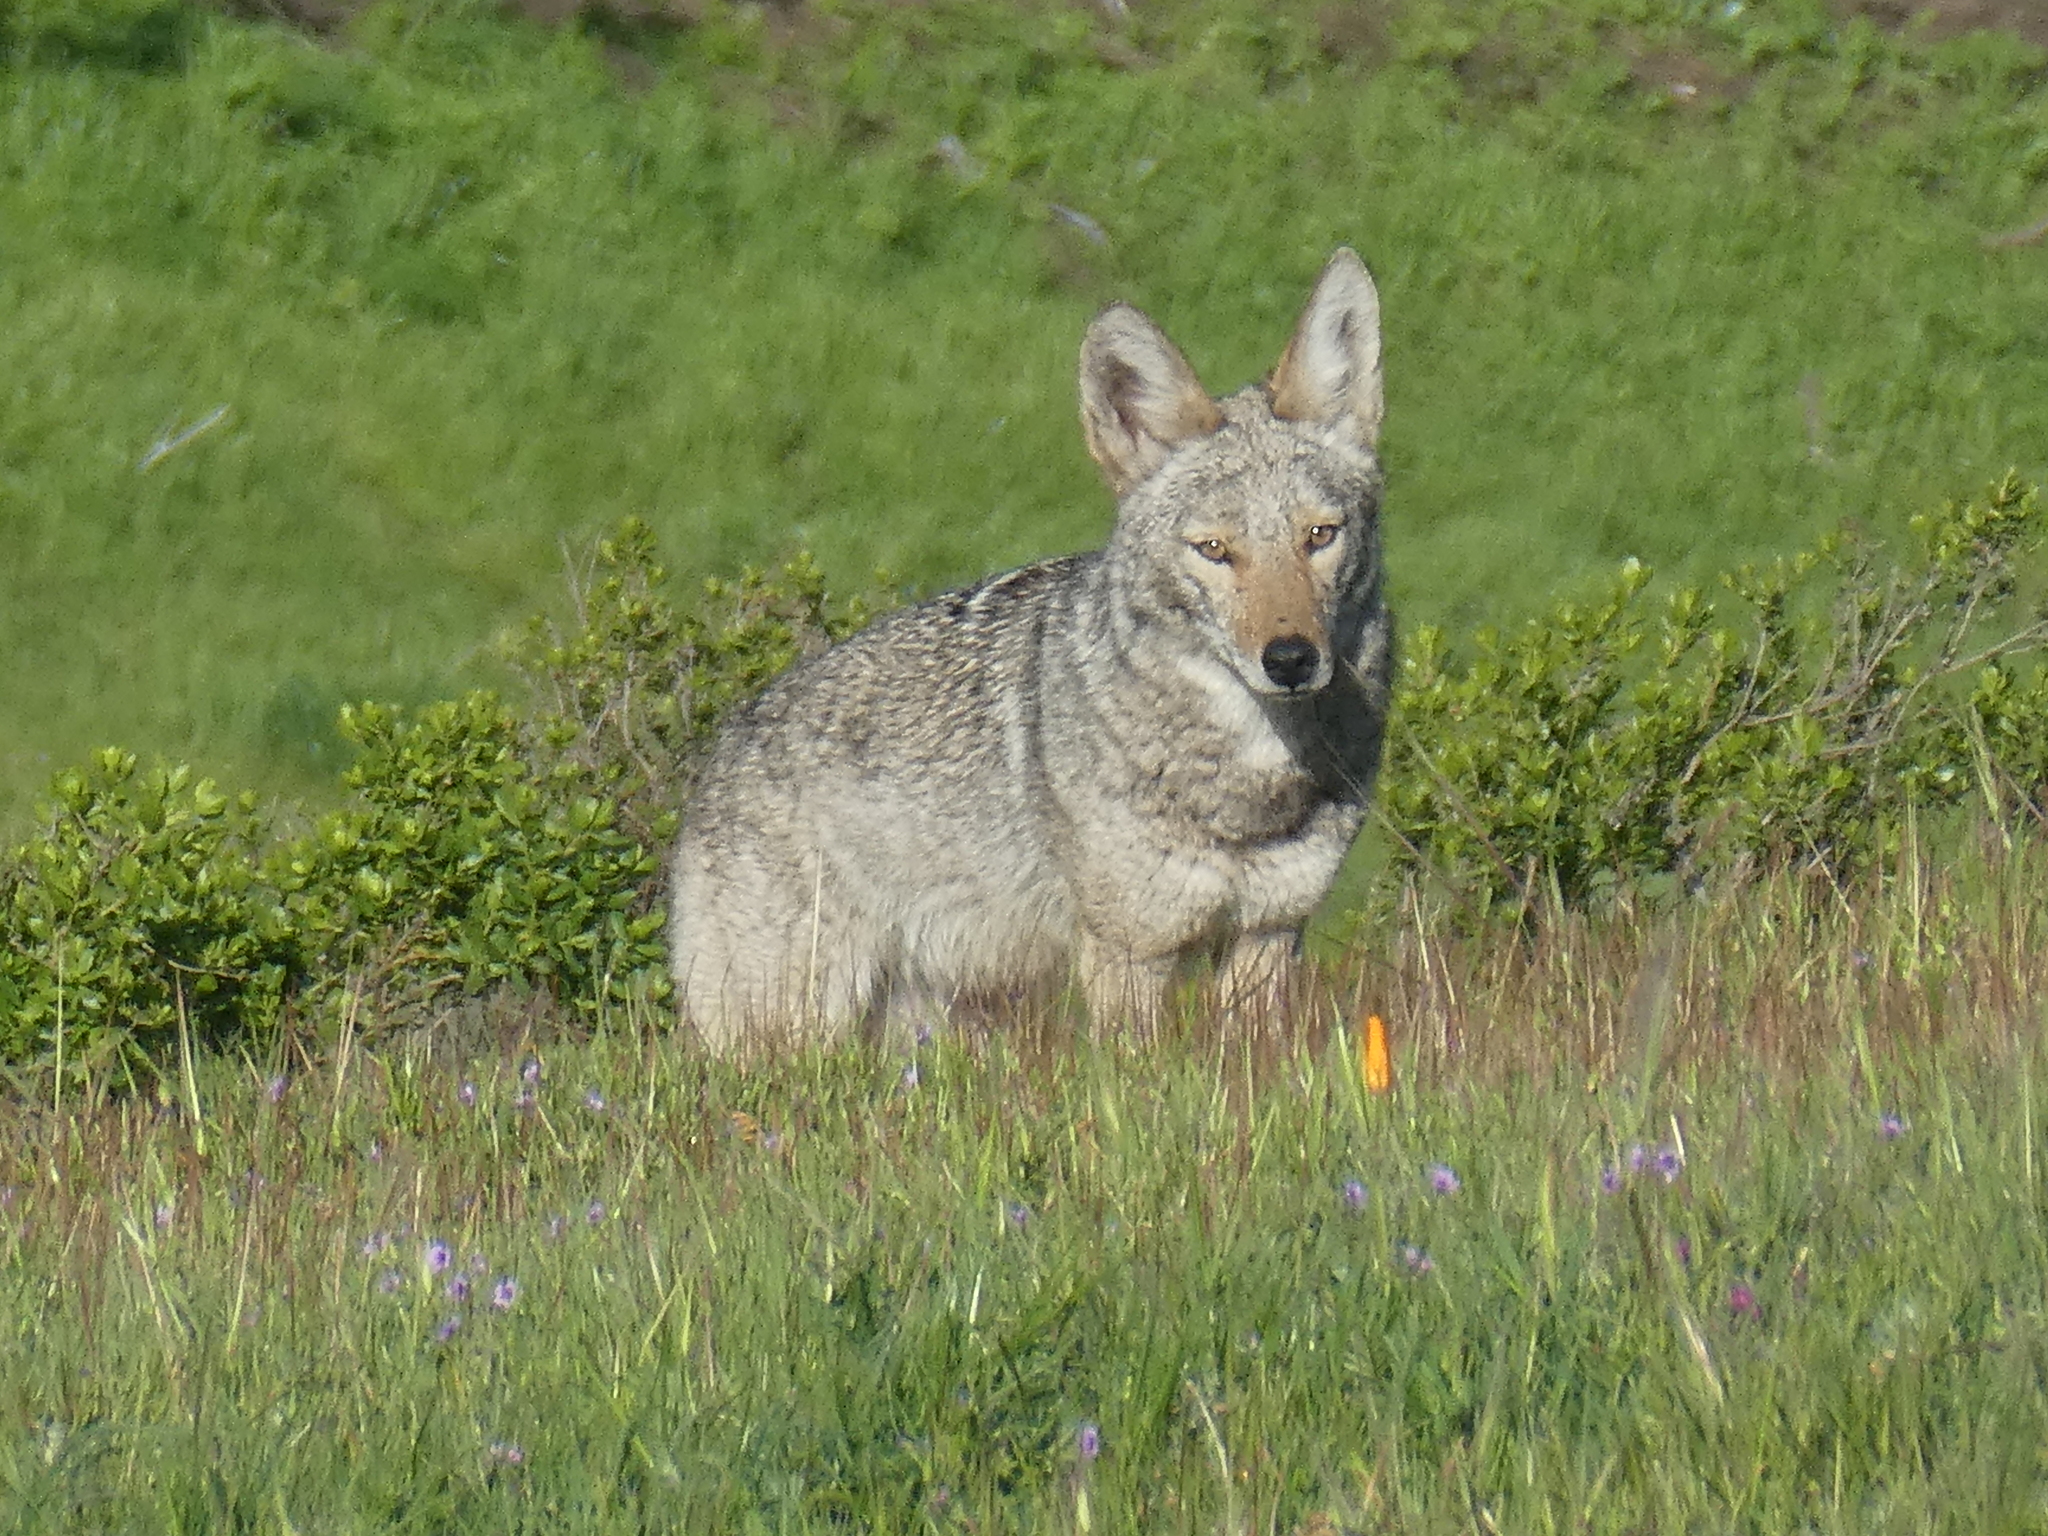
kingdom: Animalia
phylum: Chordata
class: Mammalia
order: Carnivora
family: Canidae
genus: Canis
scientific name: Canis latrans
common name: Coyote
